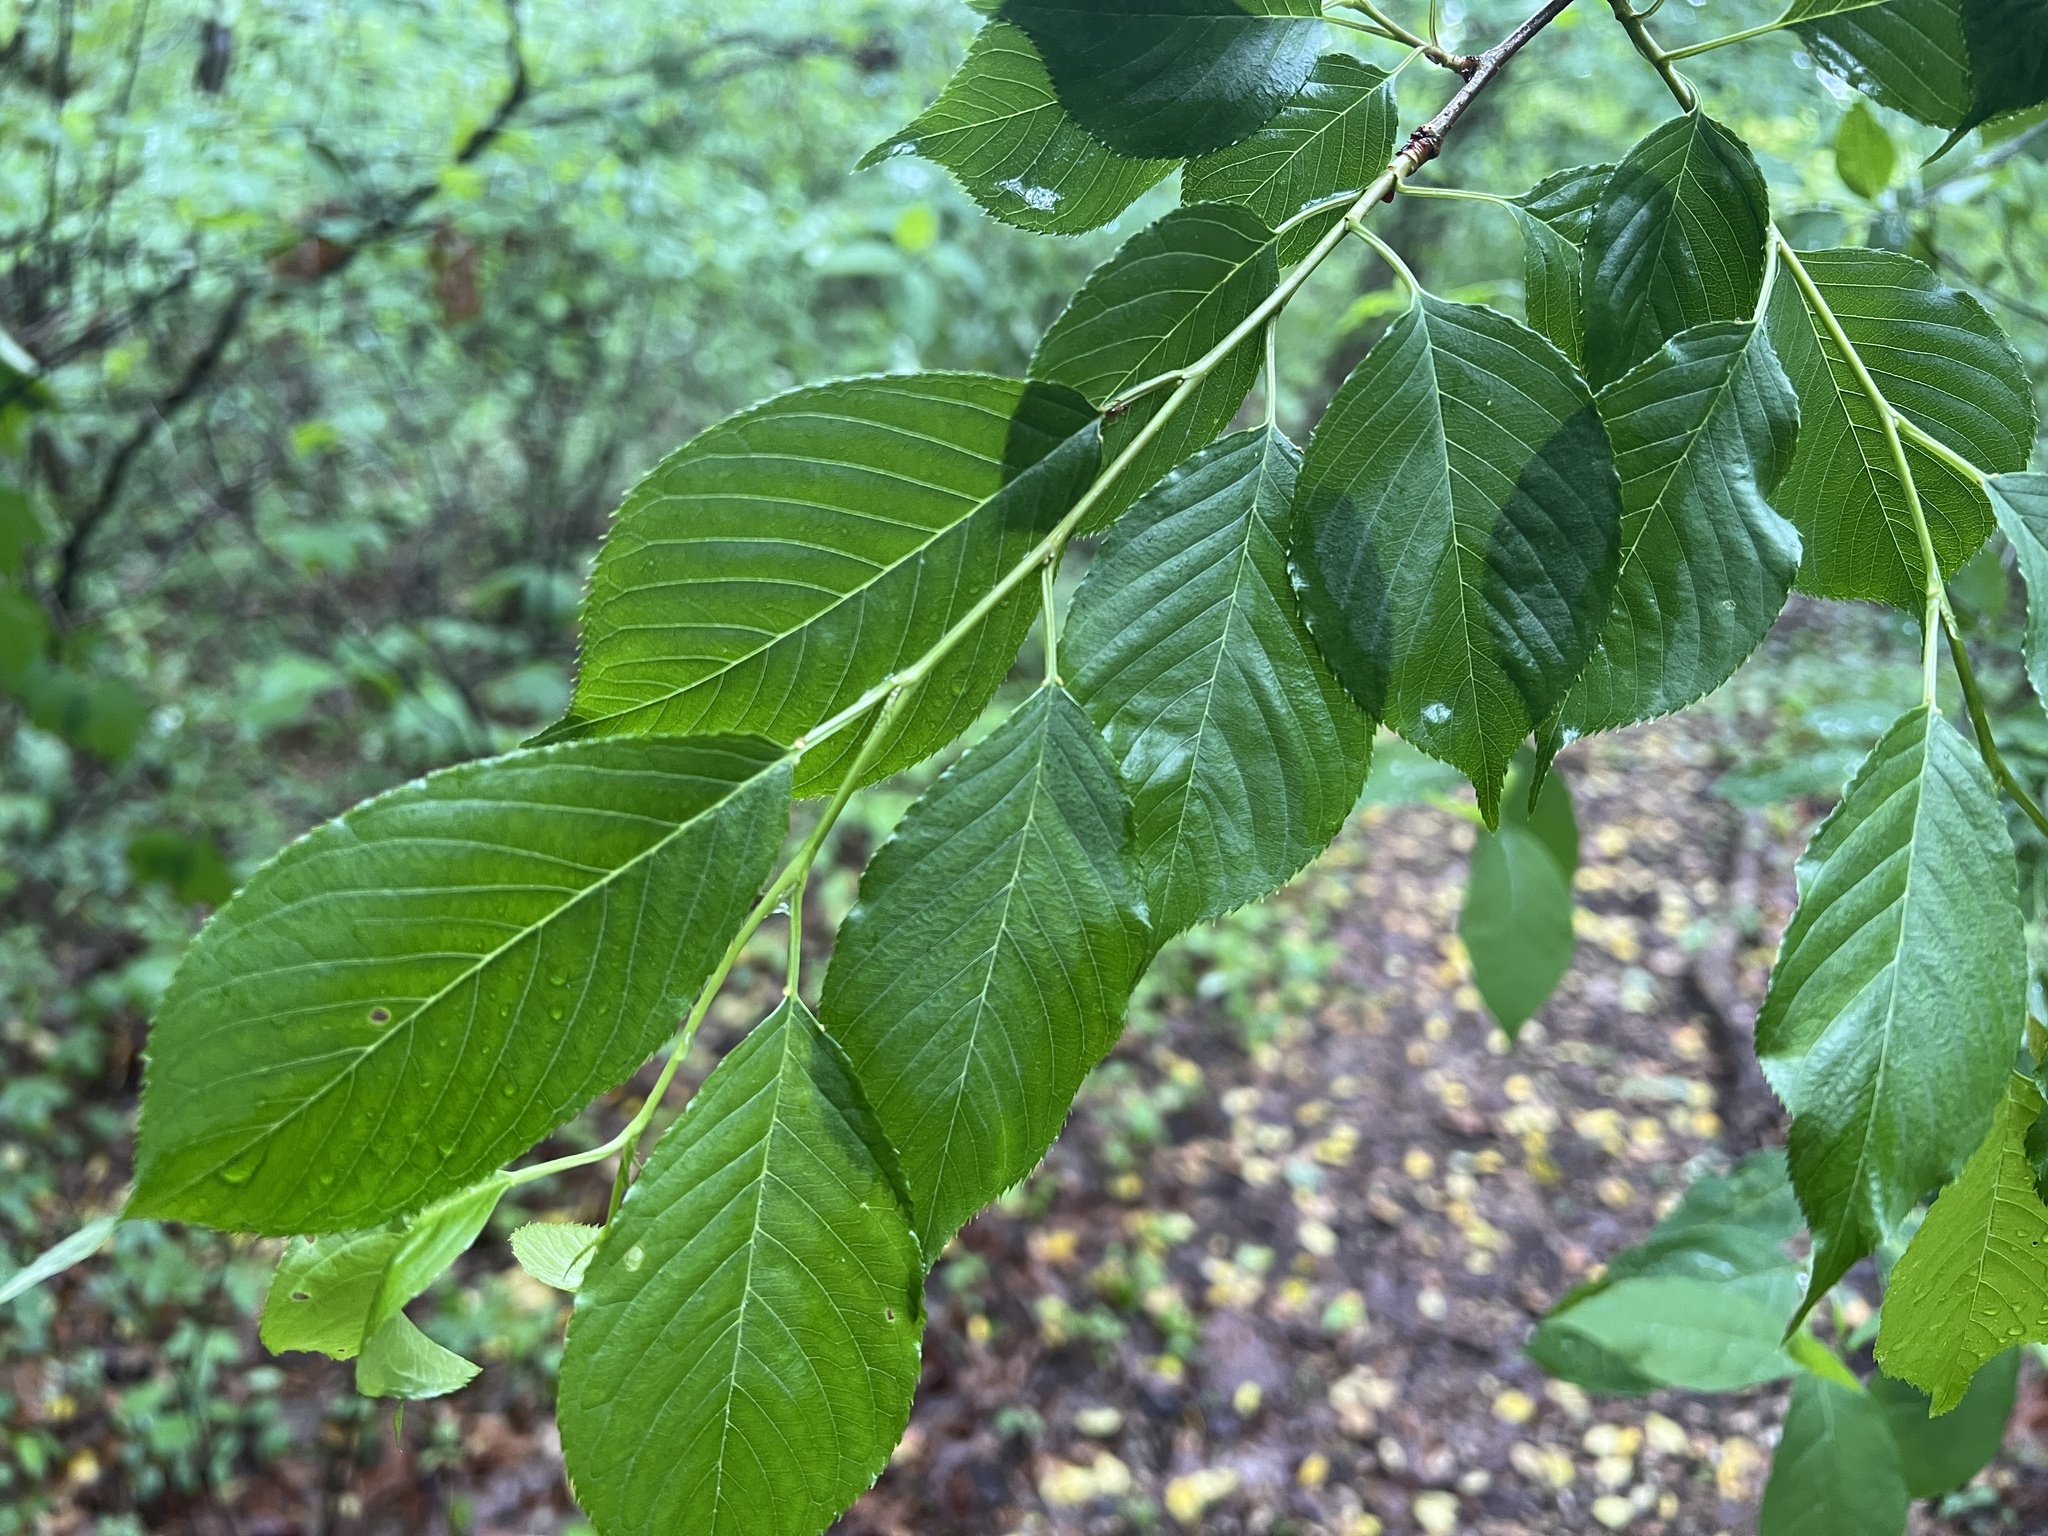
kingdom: Plantae
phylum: Tracheophyta
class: Magnoliopsida
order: Fagales
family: Betulaceae
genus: Carpinus
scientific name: Carpinus caroliniana
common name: American hornbeam
